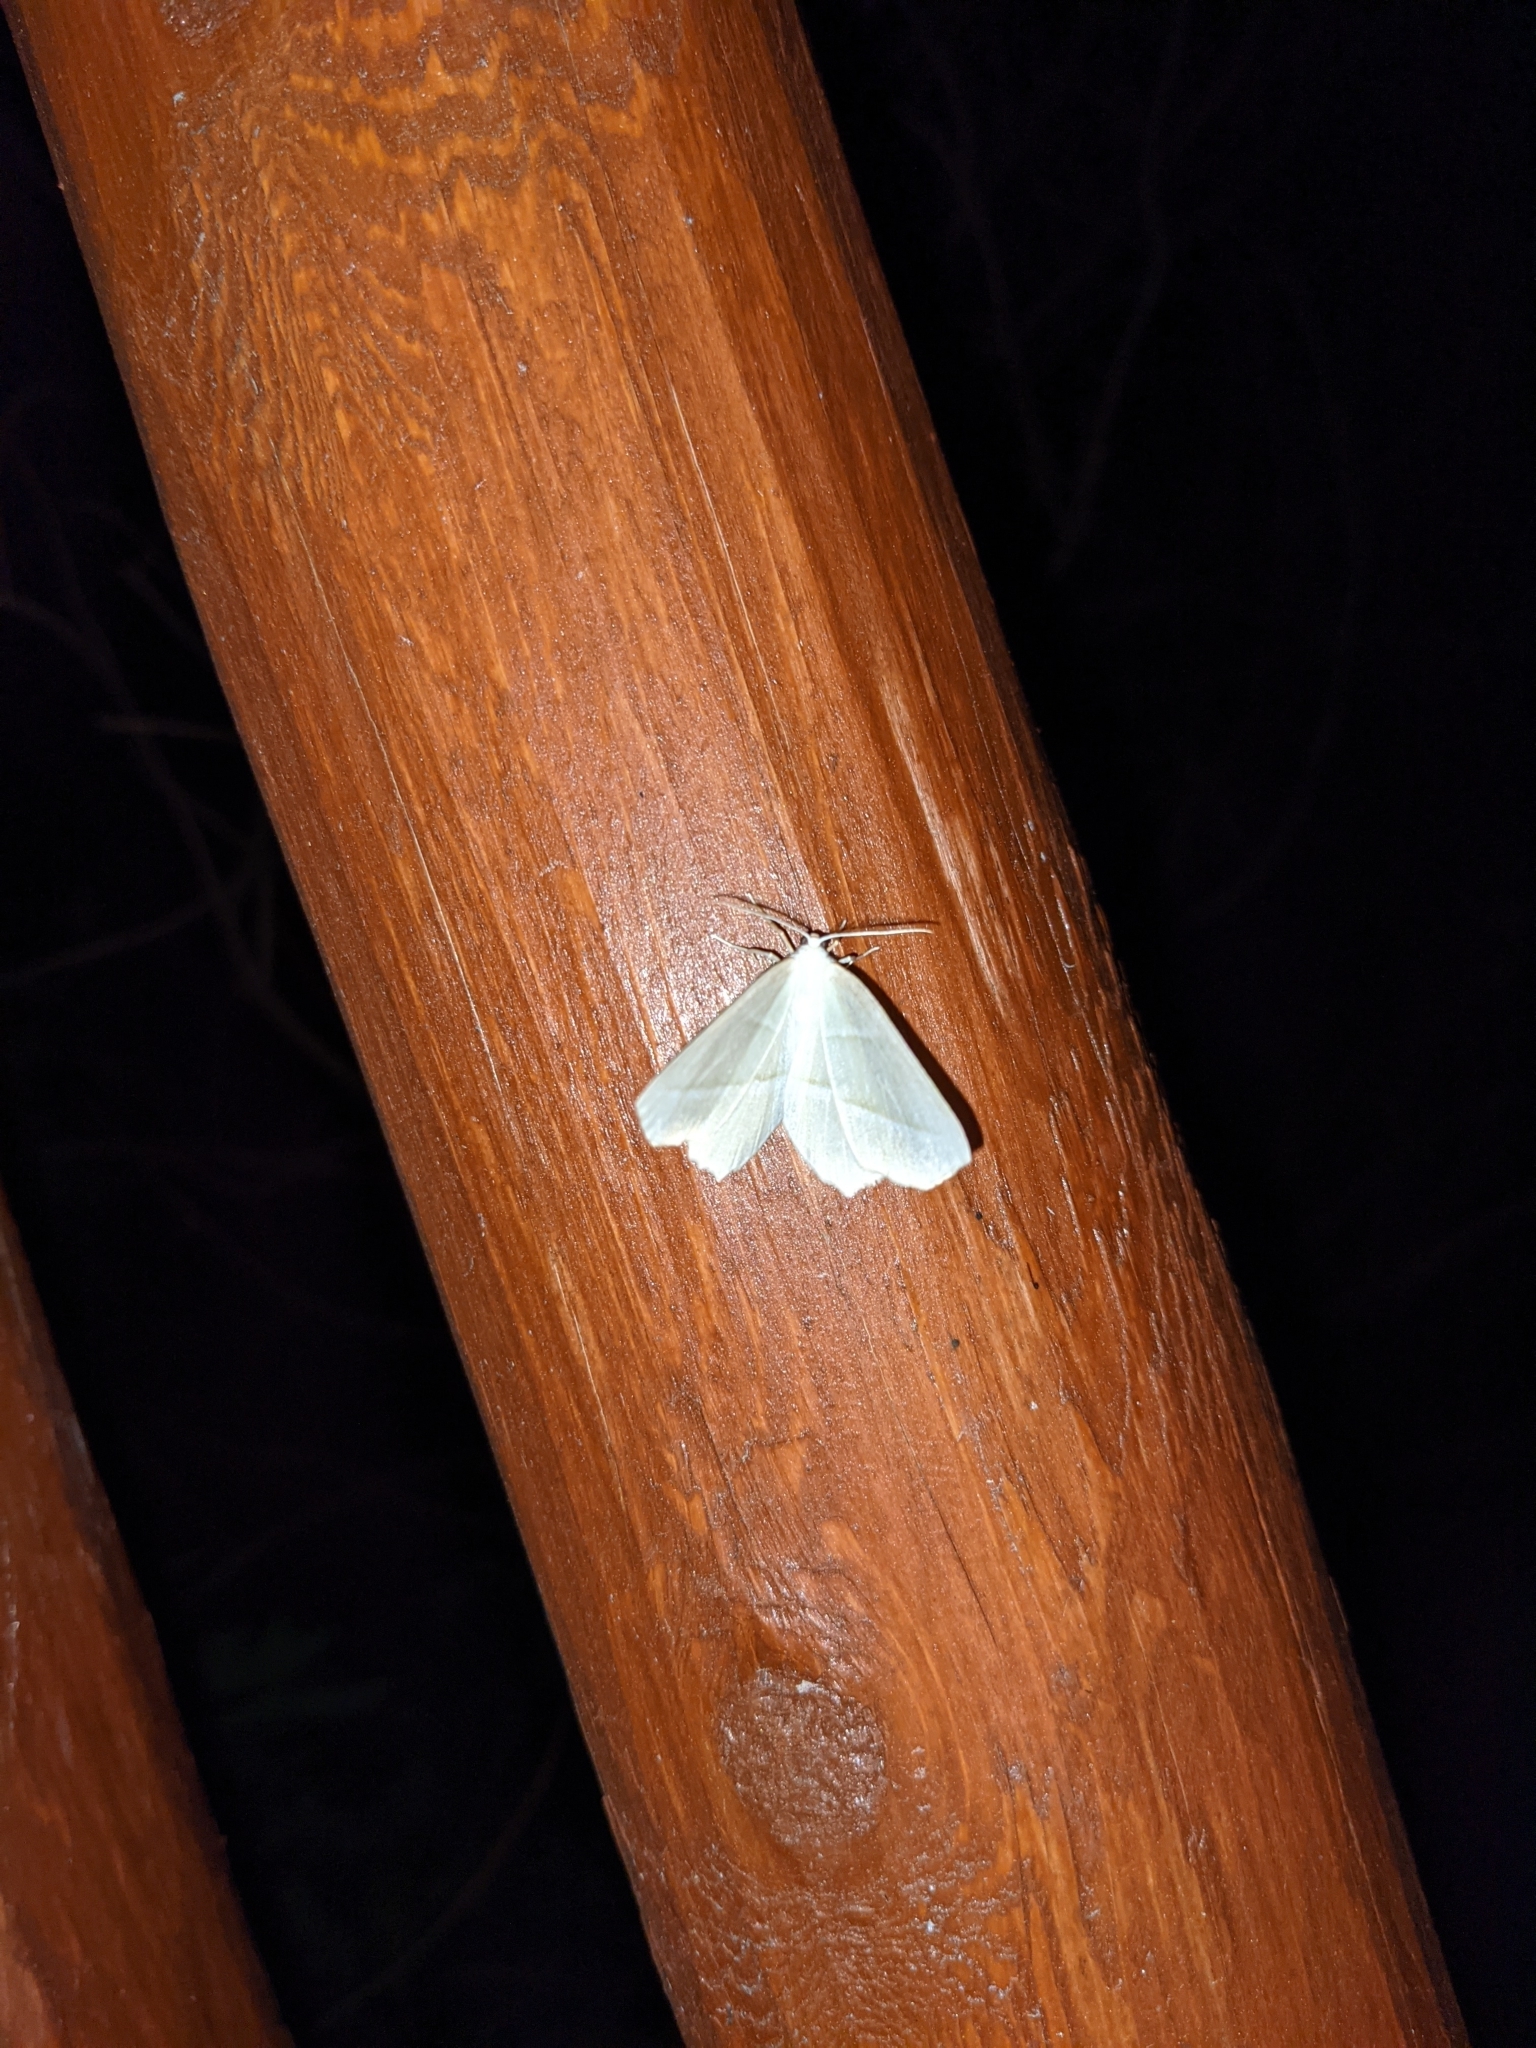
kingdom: Animalia
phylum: Arthropoda
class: Insecta
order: Lepidoptera
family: Geometridae
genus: Campaea
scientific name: Campaea perlata
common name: Fringed looper
